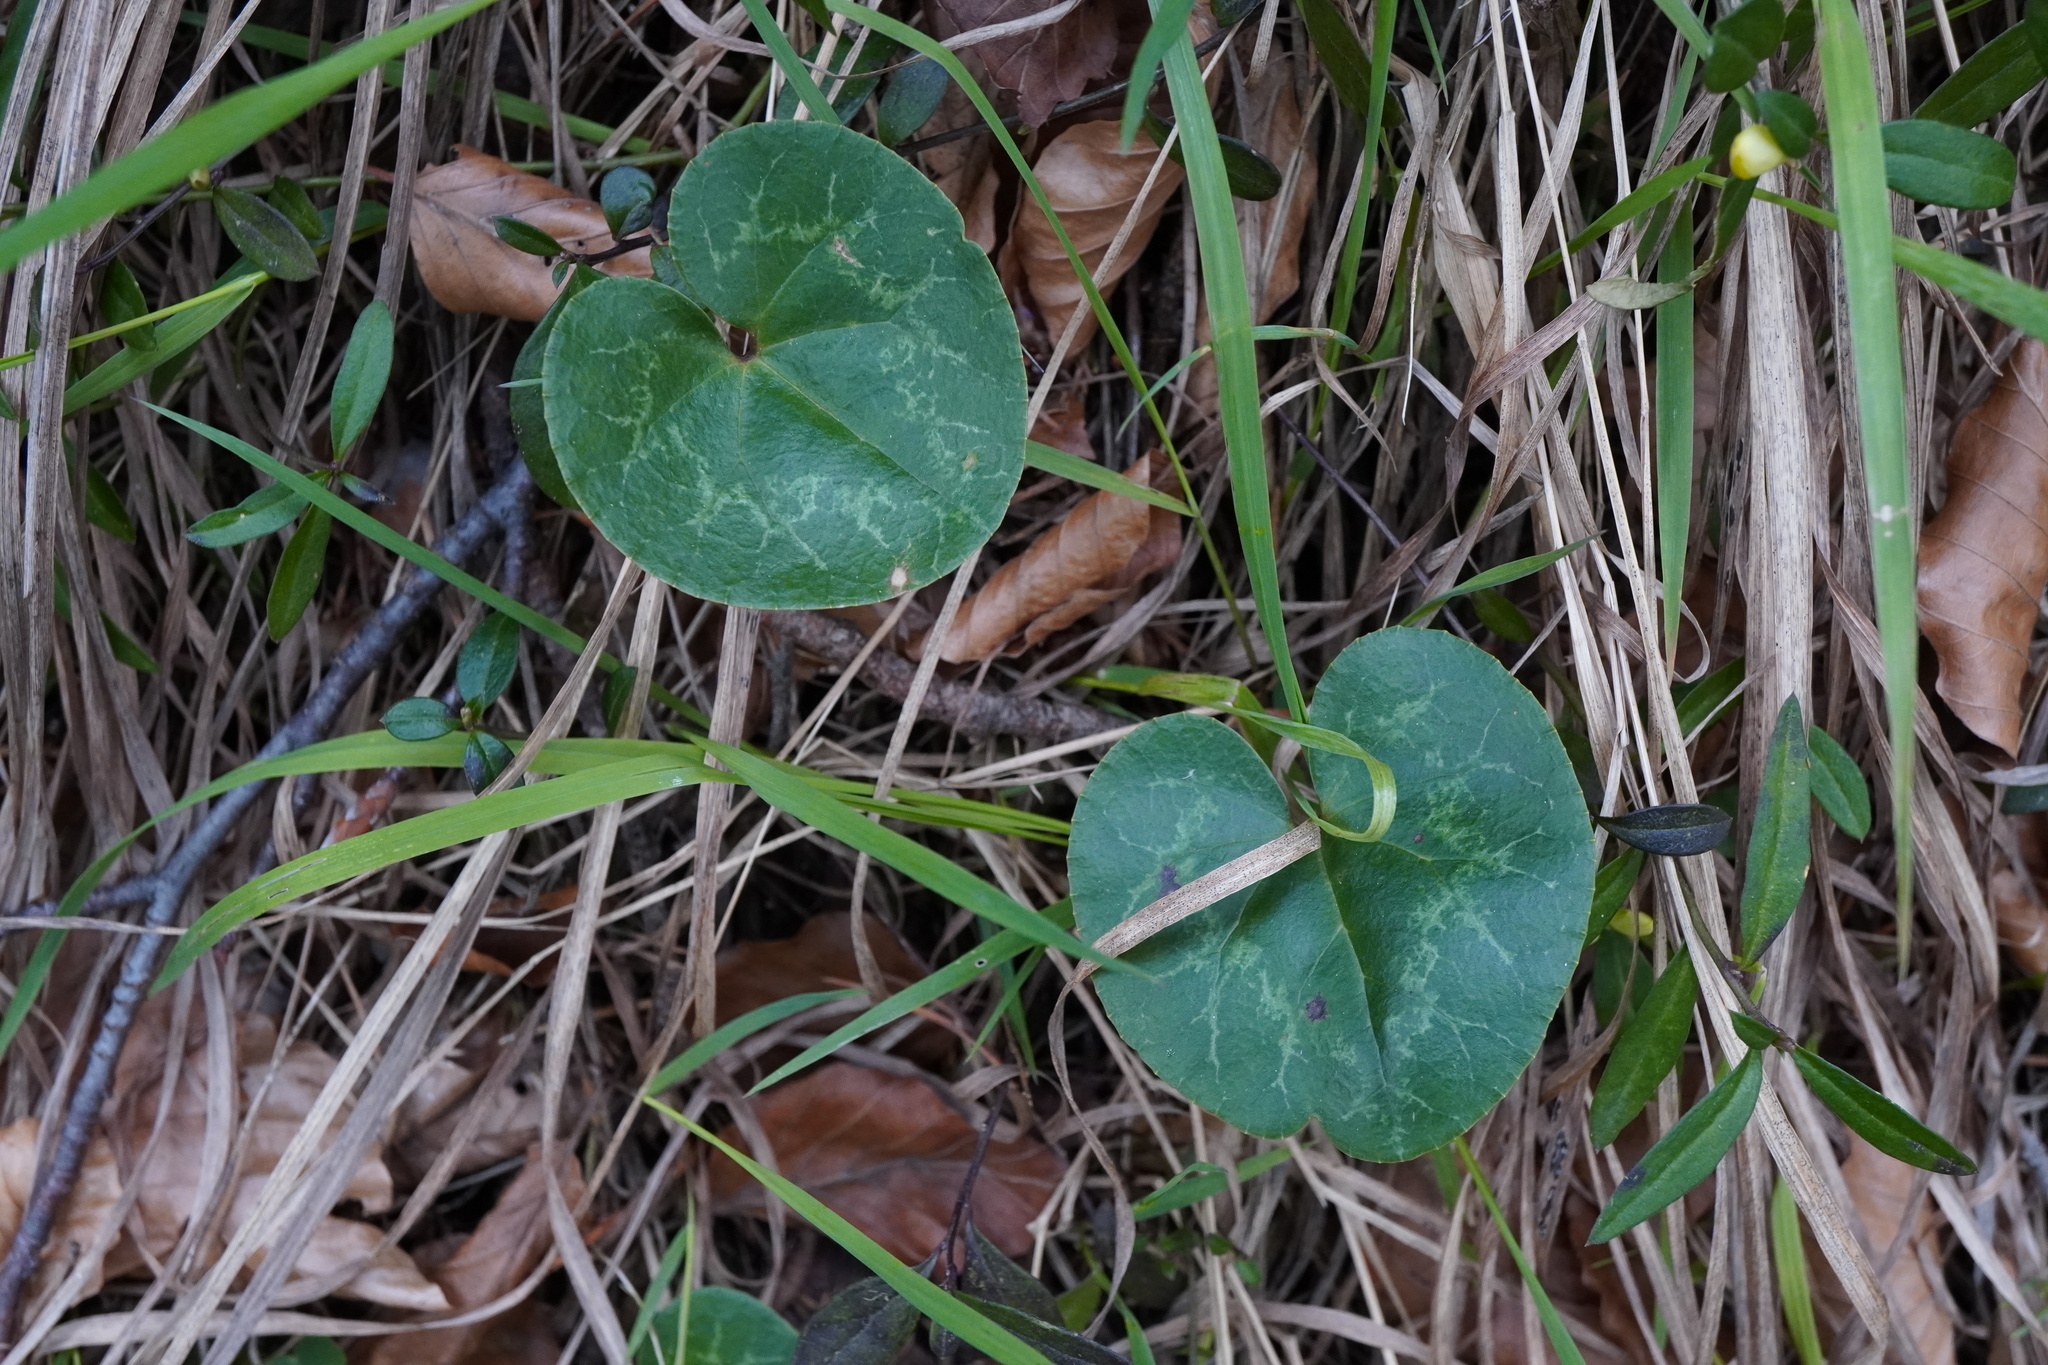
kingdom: Plantae
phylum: Tracheophyta
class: Magnoliopsida
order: Ericales
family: Primulaceae
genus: Cyclamen
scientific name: Cyclamen purpurascens
